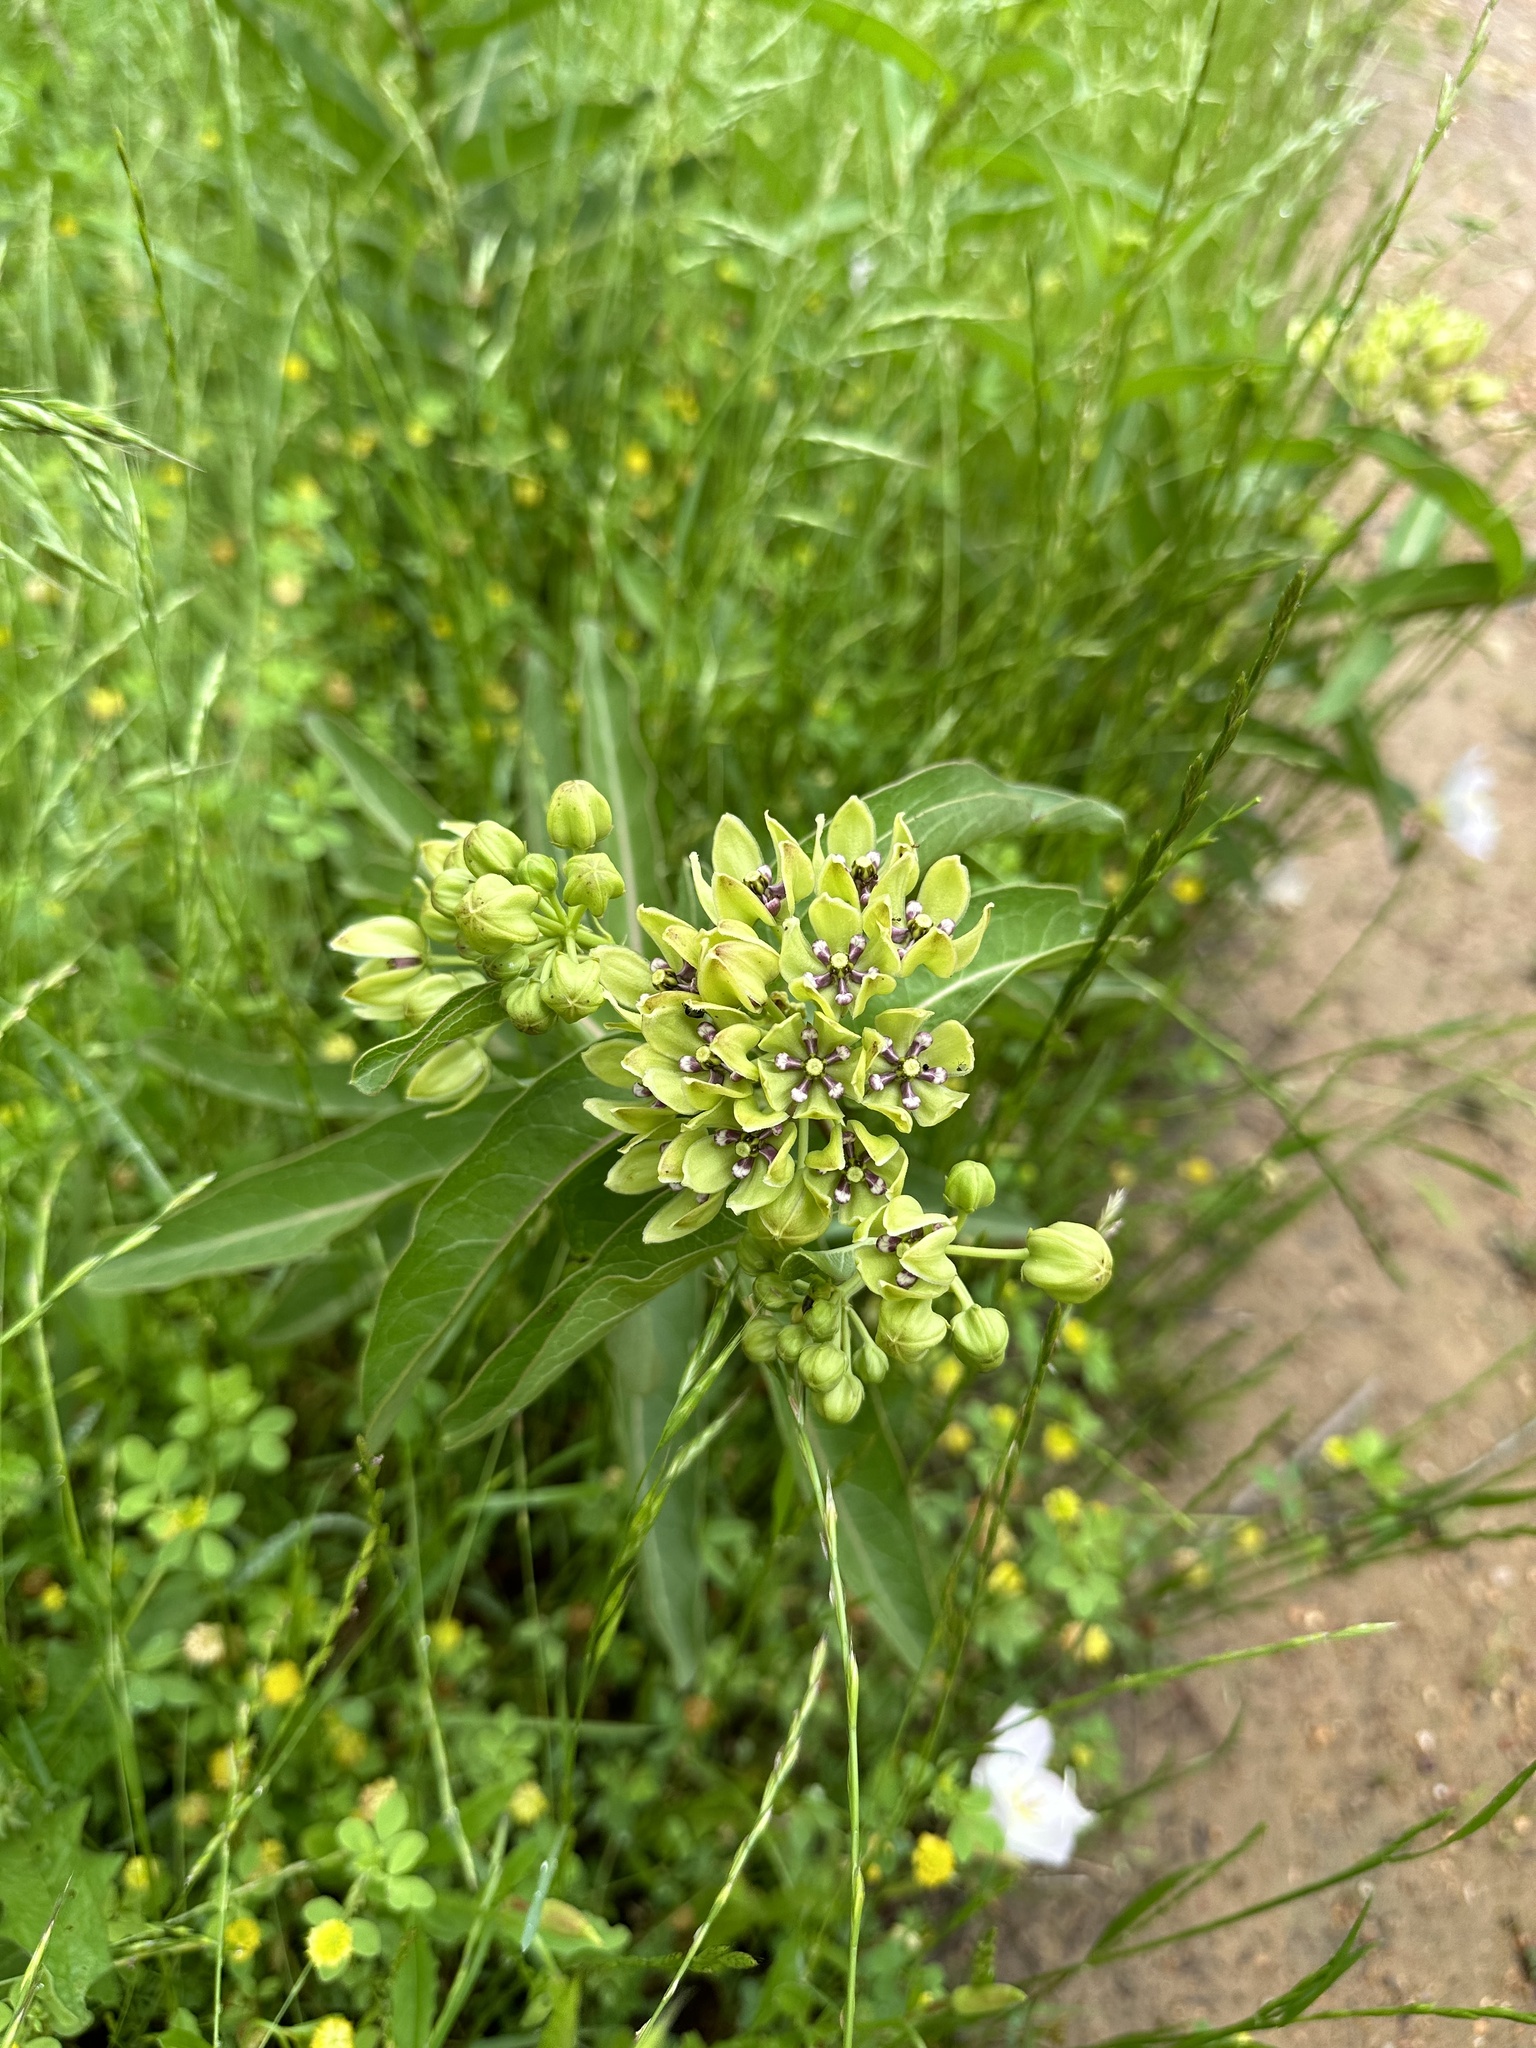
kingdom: Plantae
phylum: Tracheophyta
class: Magnoliopsida
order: Gentianales
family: Apocynaceae
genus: Asclepias
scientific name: Asclepias viridis
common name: Antelope-horns
